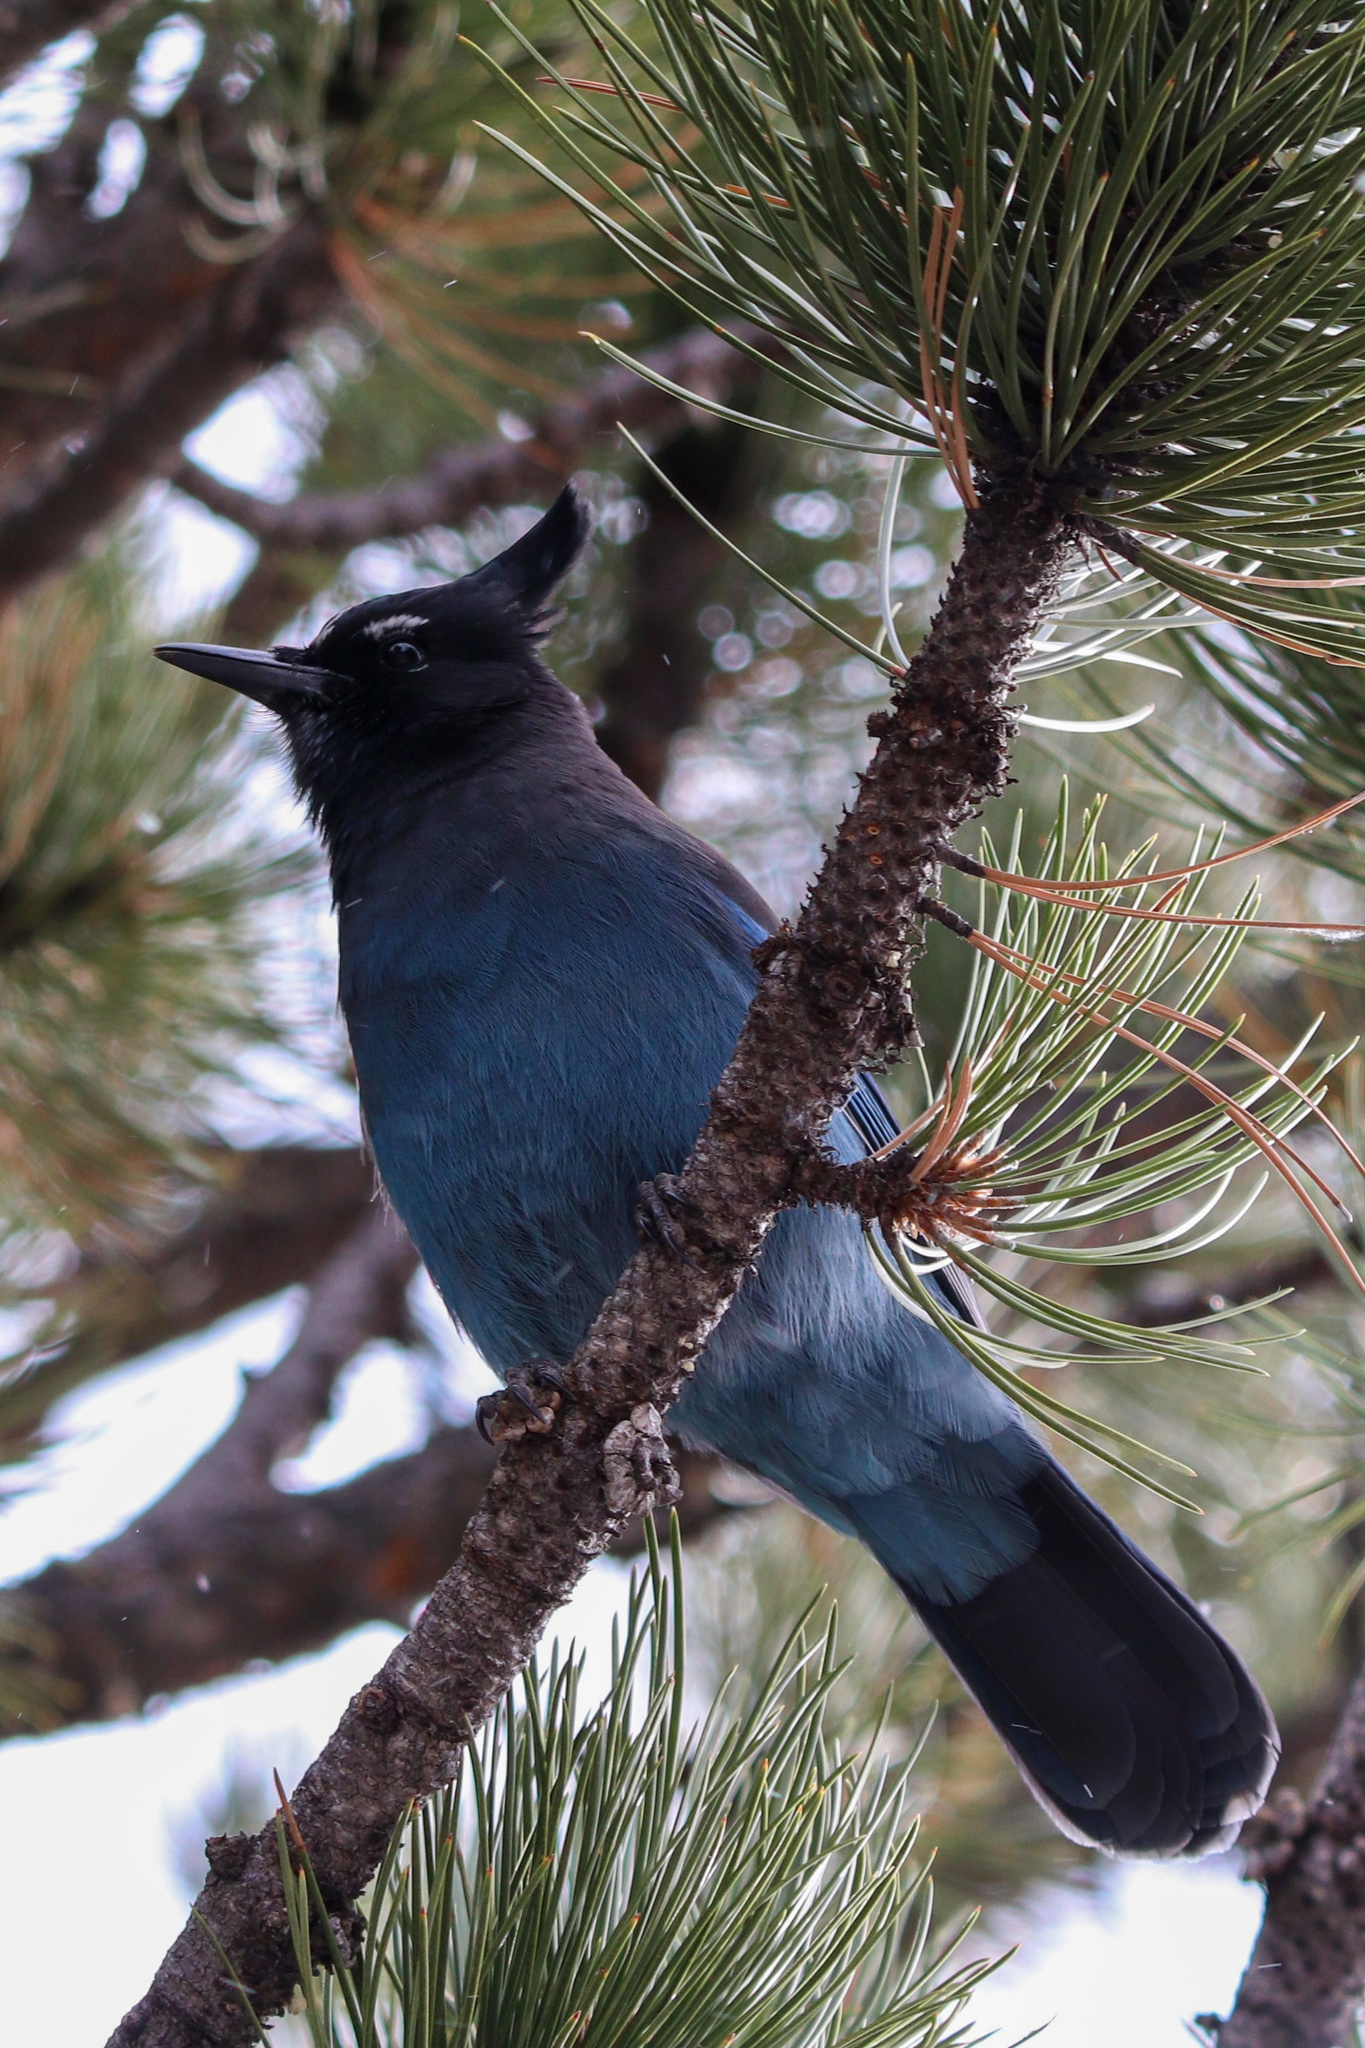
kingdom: Animalia
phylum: Chordata
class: Aves
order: Passeriformes
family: Corvidae
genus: Cyanocitta
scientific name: Cyanocitta stelleri
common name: Steller's jay
